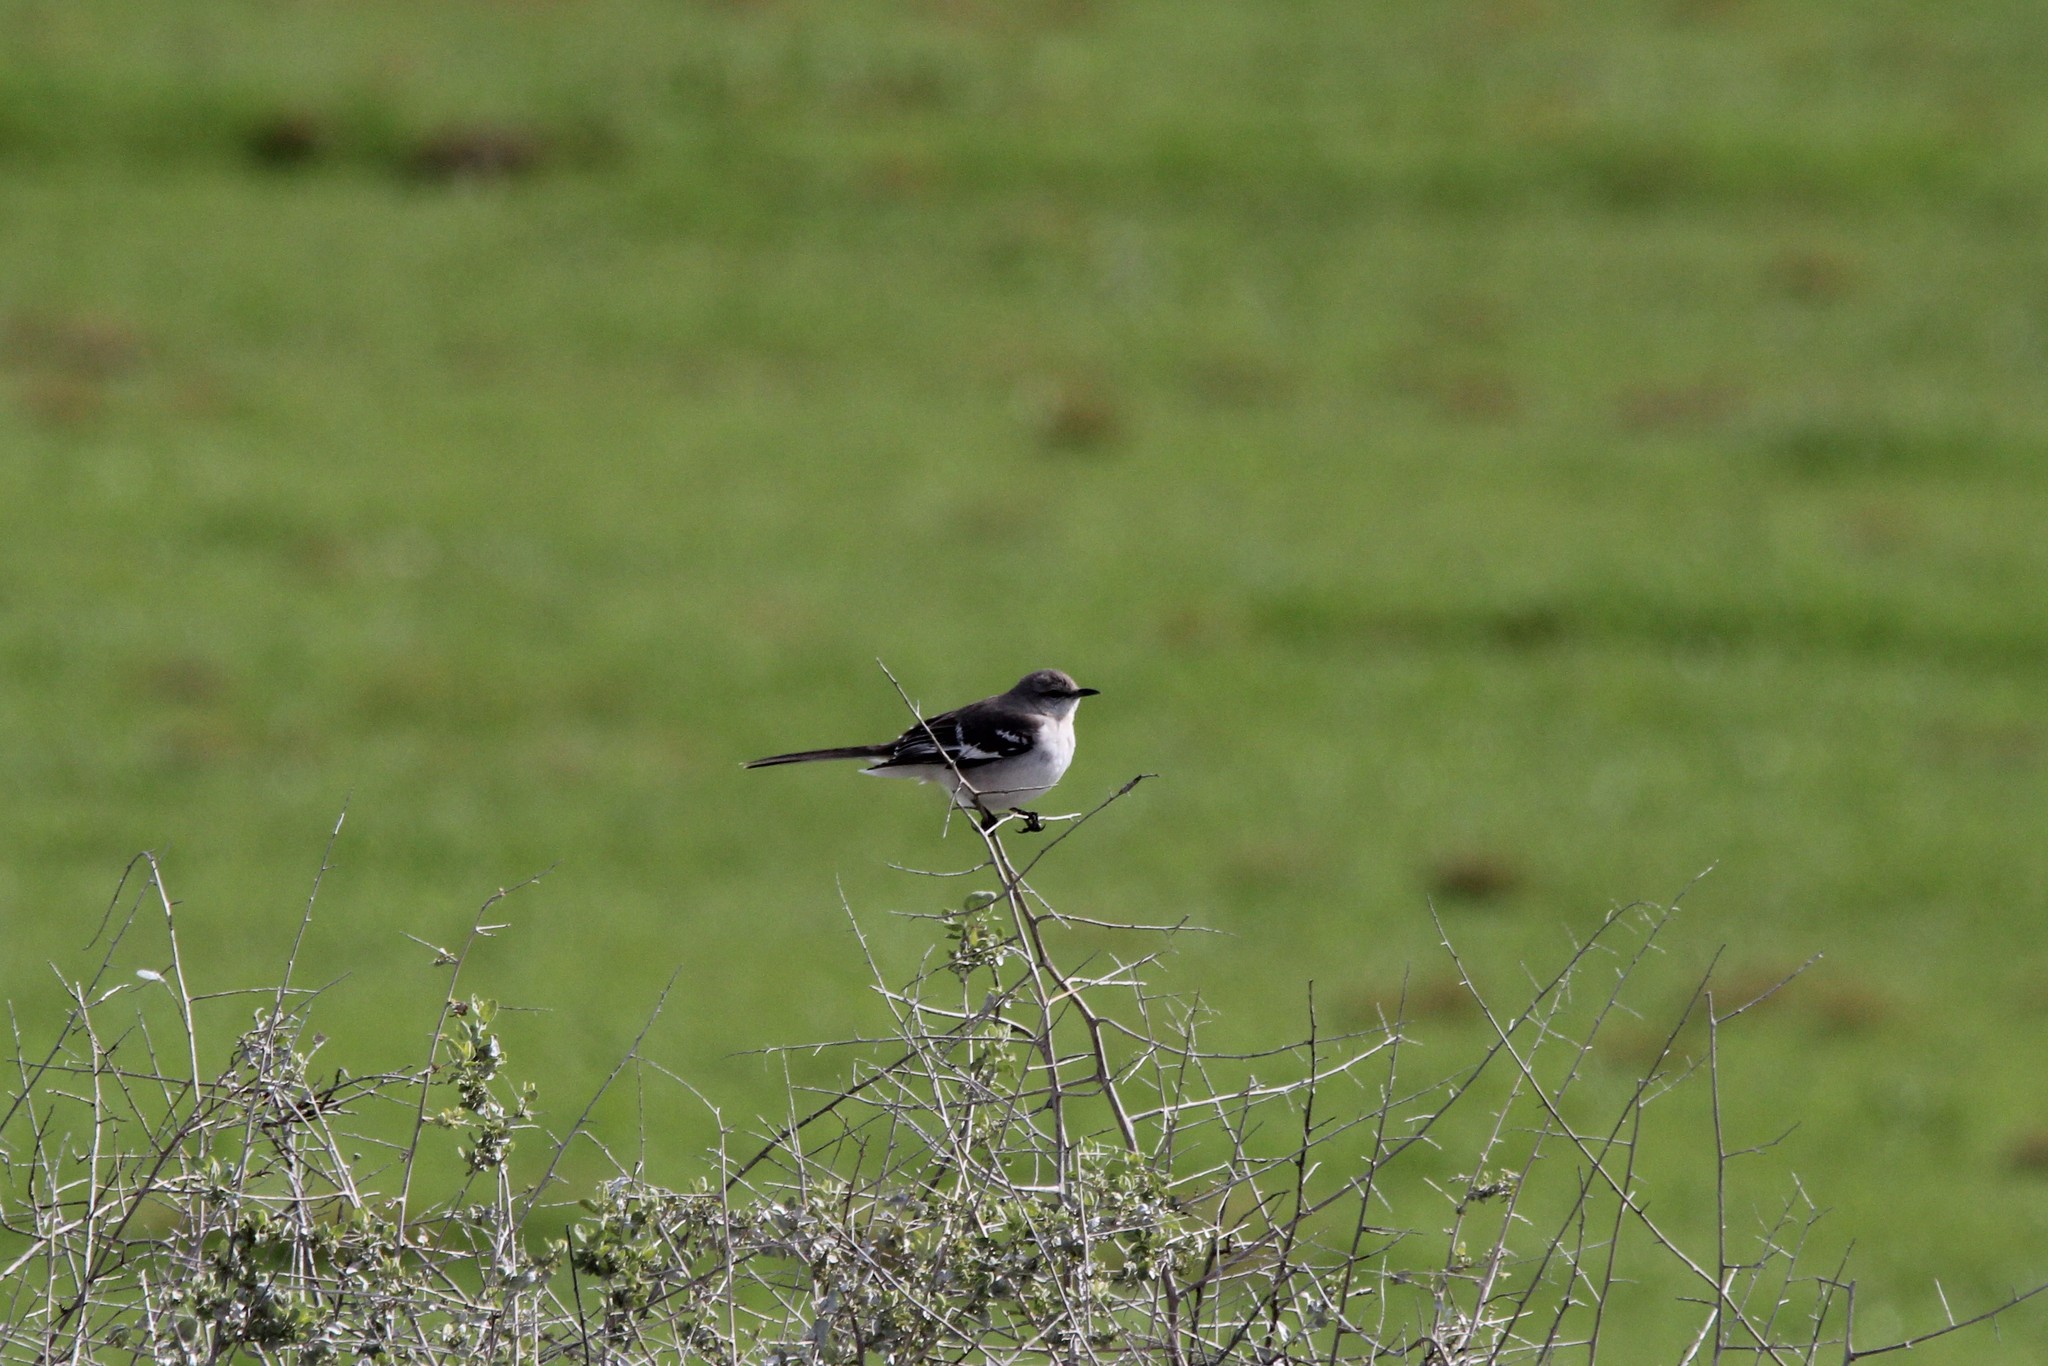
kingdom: Animalia
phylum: Chordata
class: Aves
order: Passeriformes
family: Mimidae
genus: Mimus
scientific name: Mimus polyglottos
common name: Northern mockingbird
